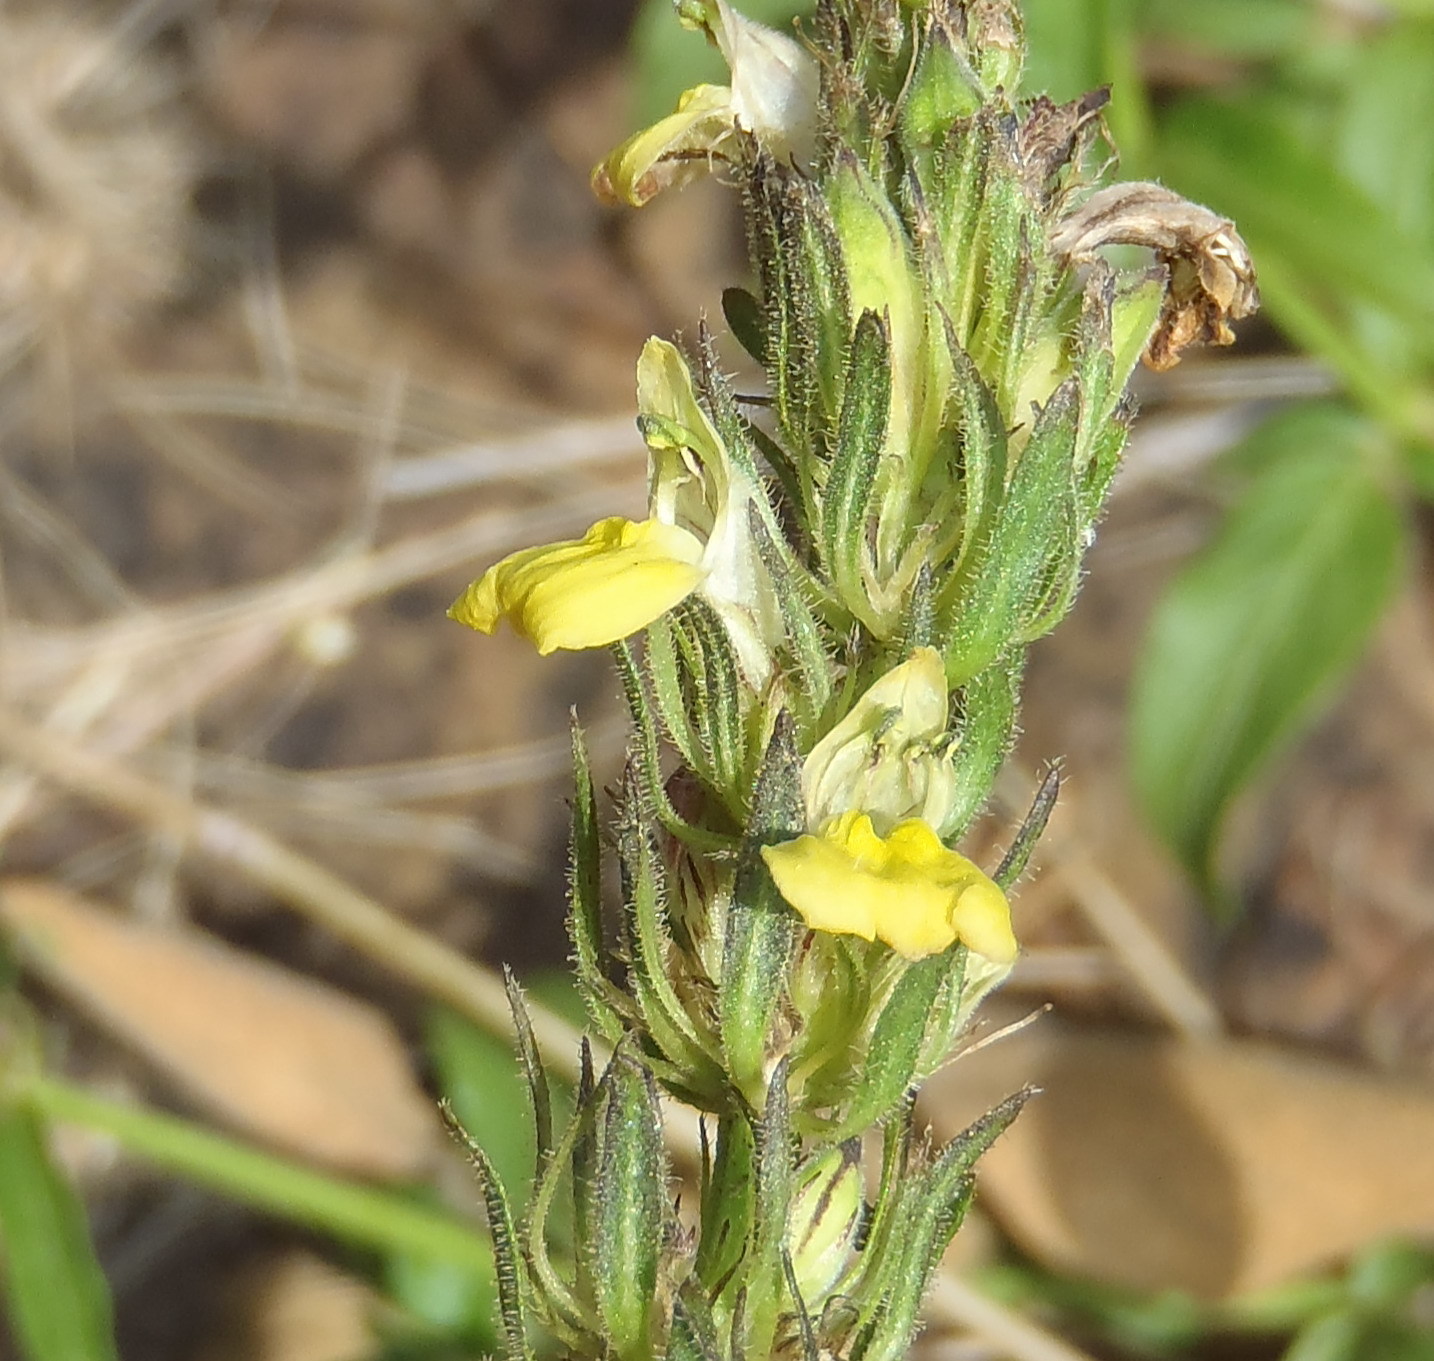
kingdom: Plantae
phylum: Tracheophyta
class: Magnoliopsida
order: Lamiales
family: Acanthaceae
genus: Justicia
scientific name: Justicia flava
